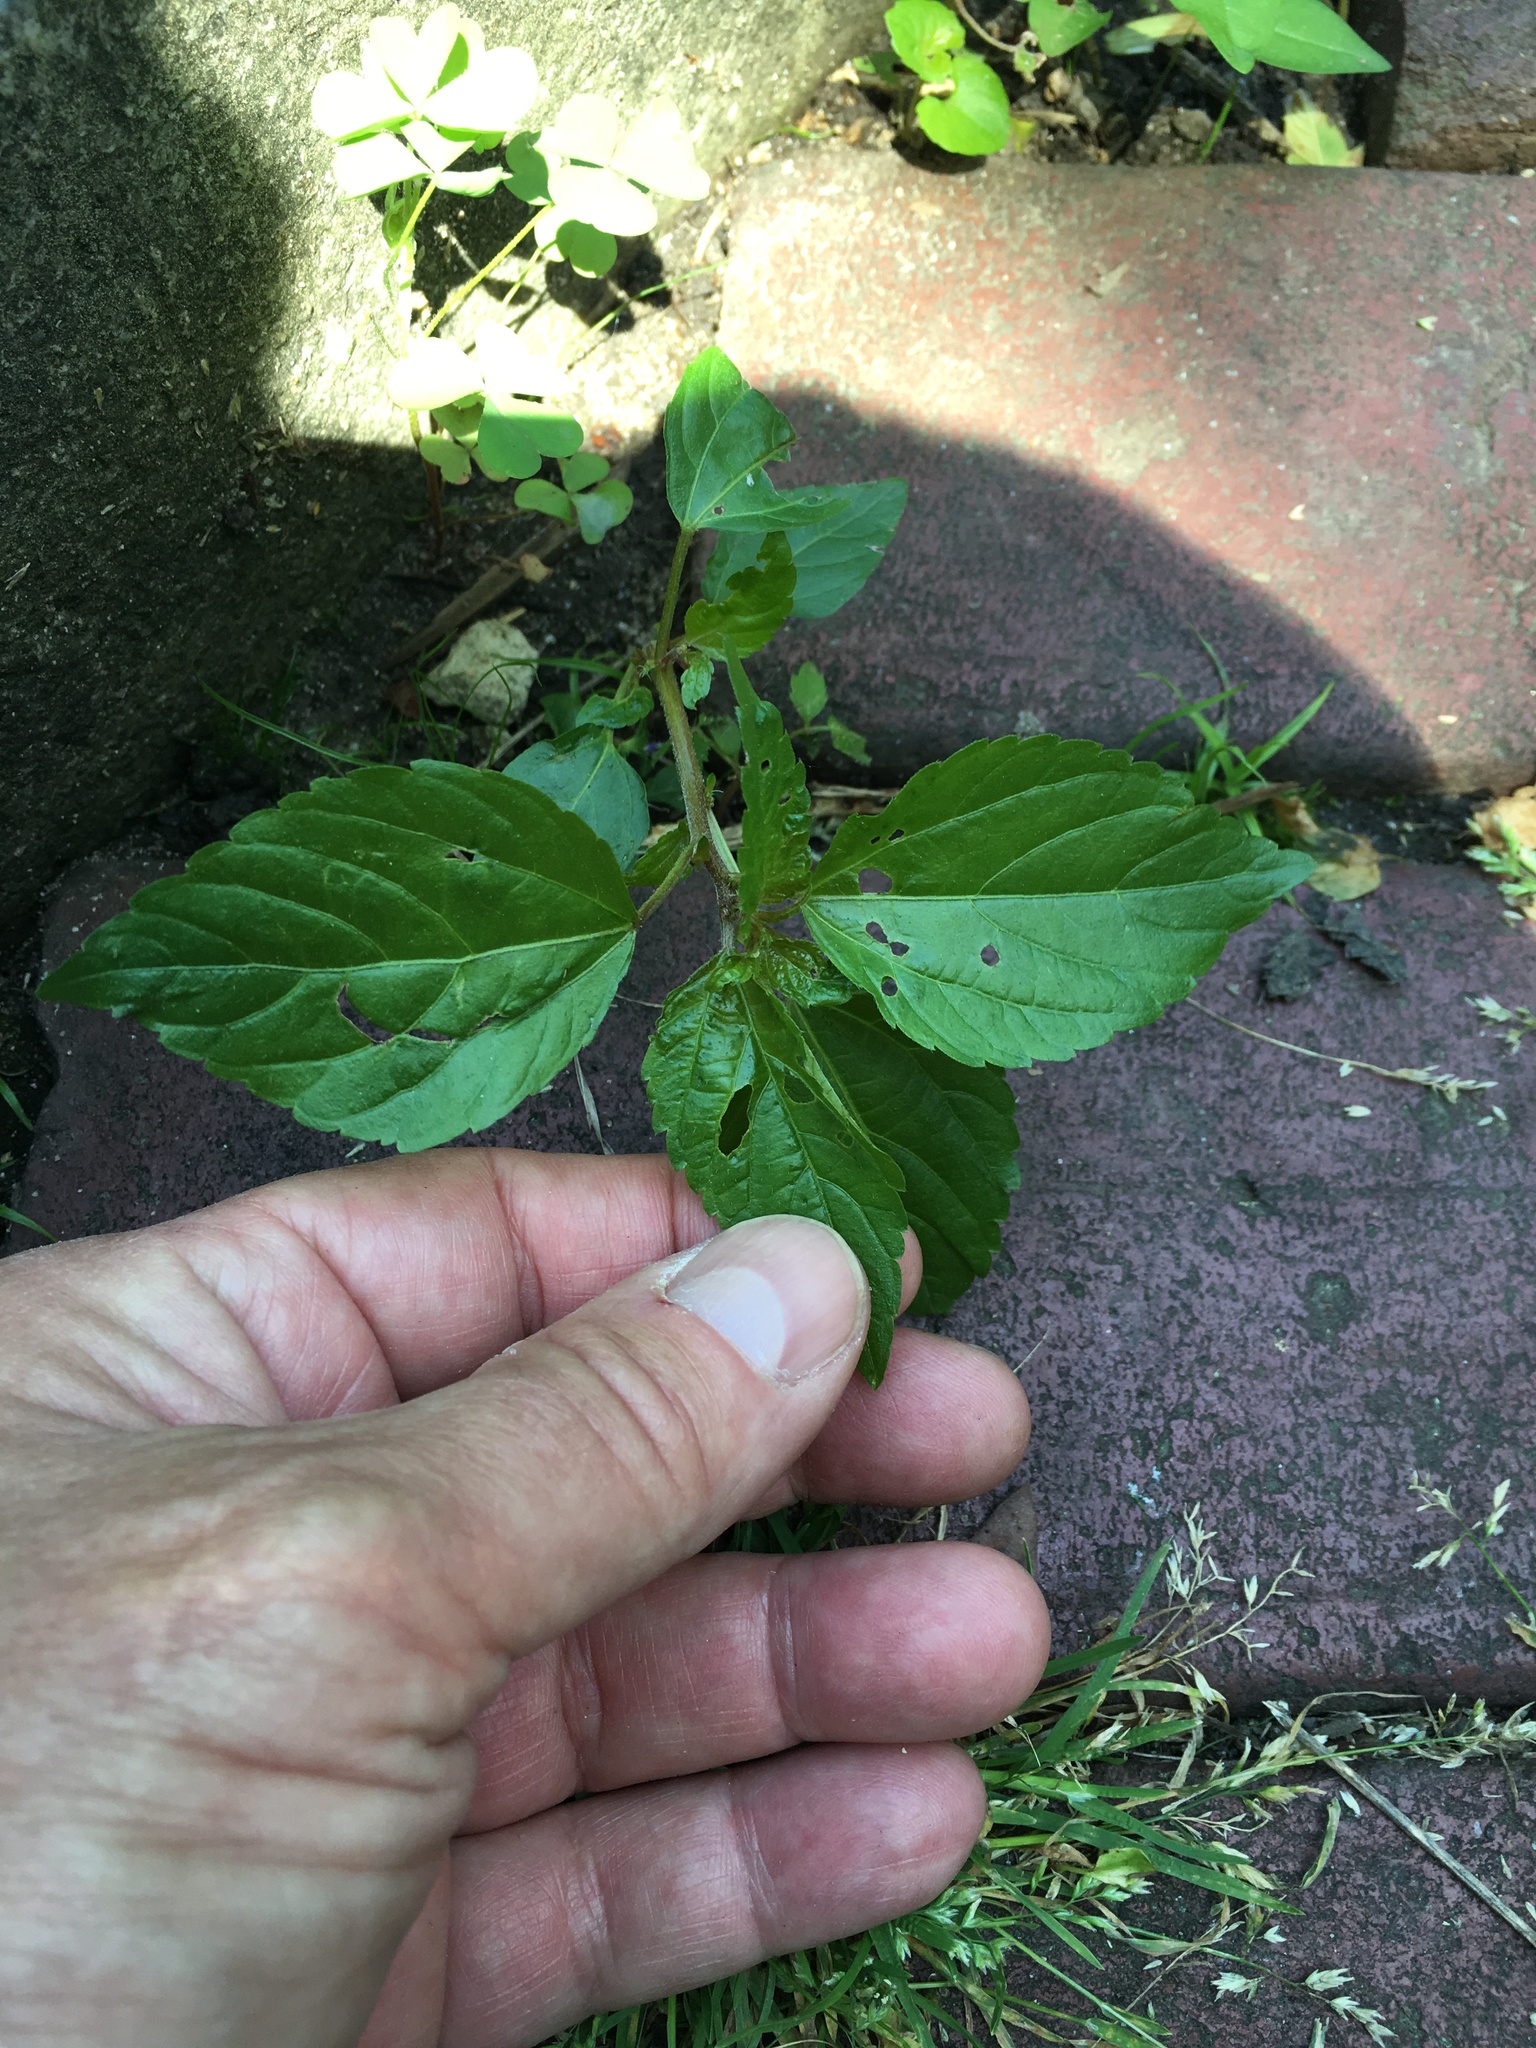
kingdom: Plantae
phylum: Tracheophyta
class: Magnoliopsida
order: Malpighiales
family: Euphorbiaceae
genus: Acalypha
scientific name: Acalypha rhomboidea
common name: Rhombic copperleaf
